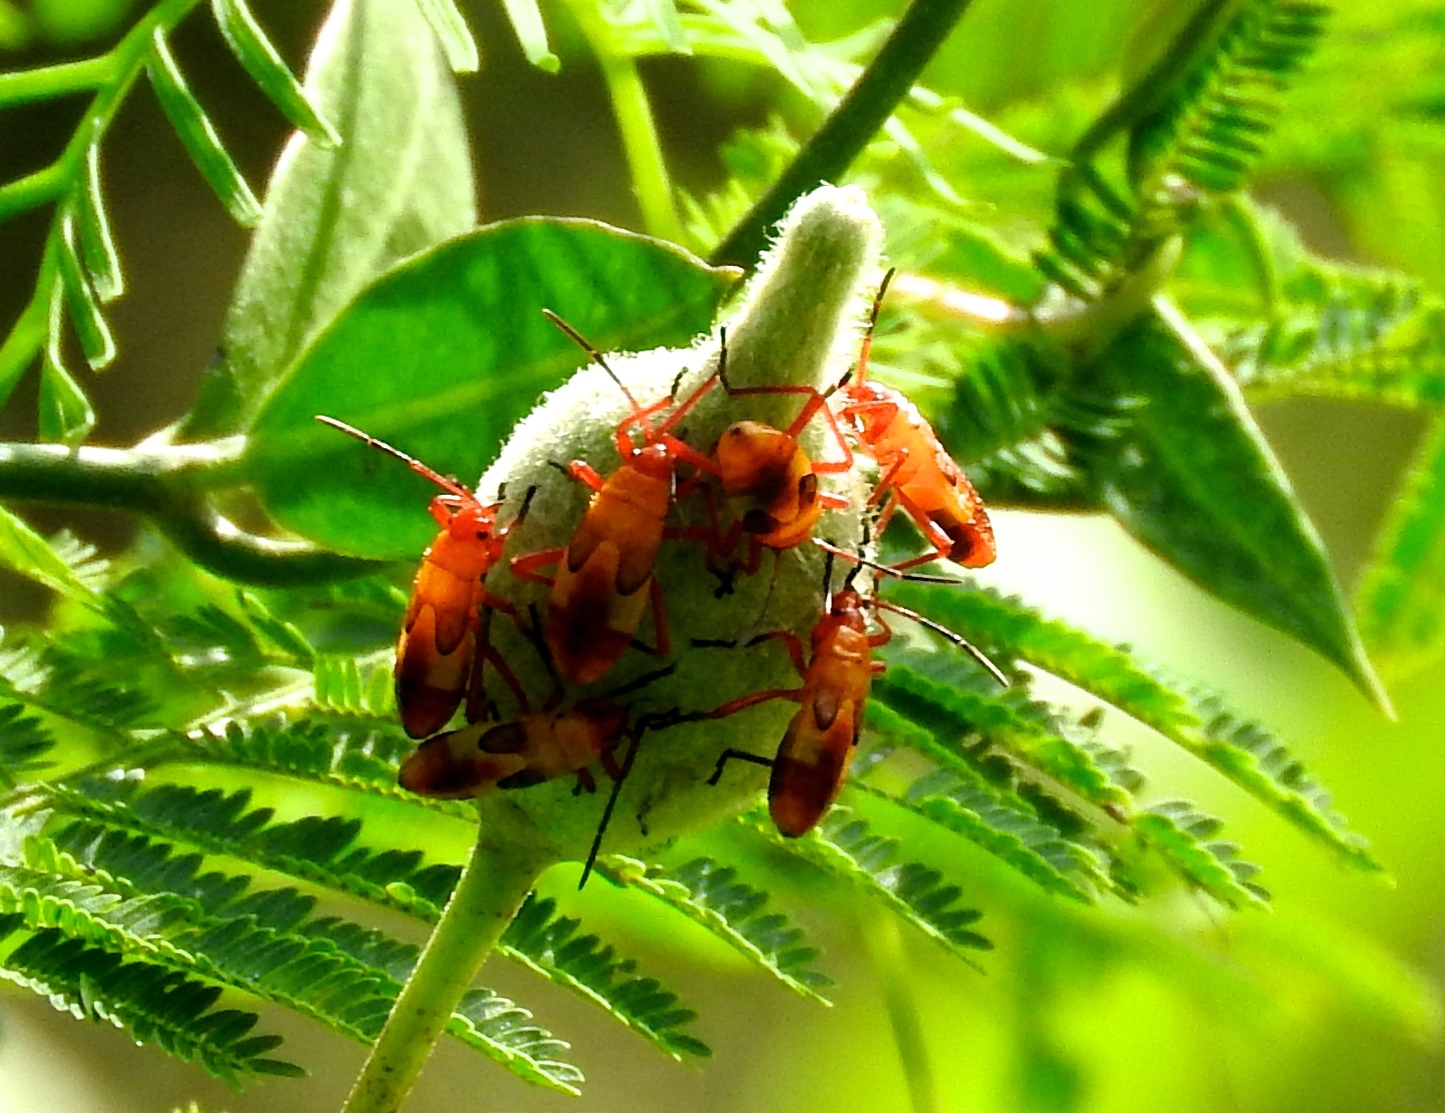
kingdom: Animalia
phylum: Arthropoda
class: Insecta
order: Hemiptera
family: Lygaeidae
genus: Oncopeltus
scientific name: Oncopeltus guttaloides
